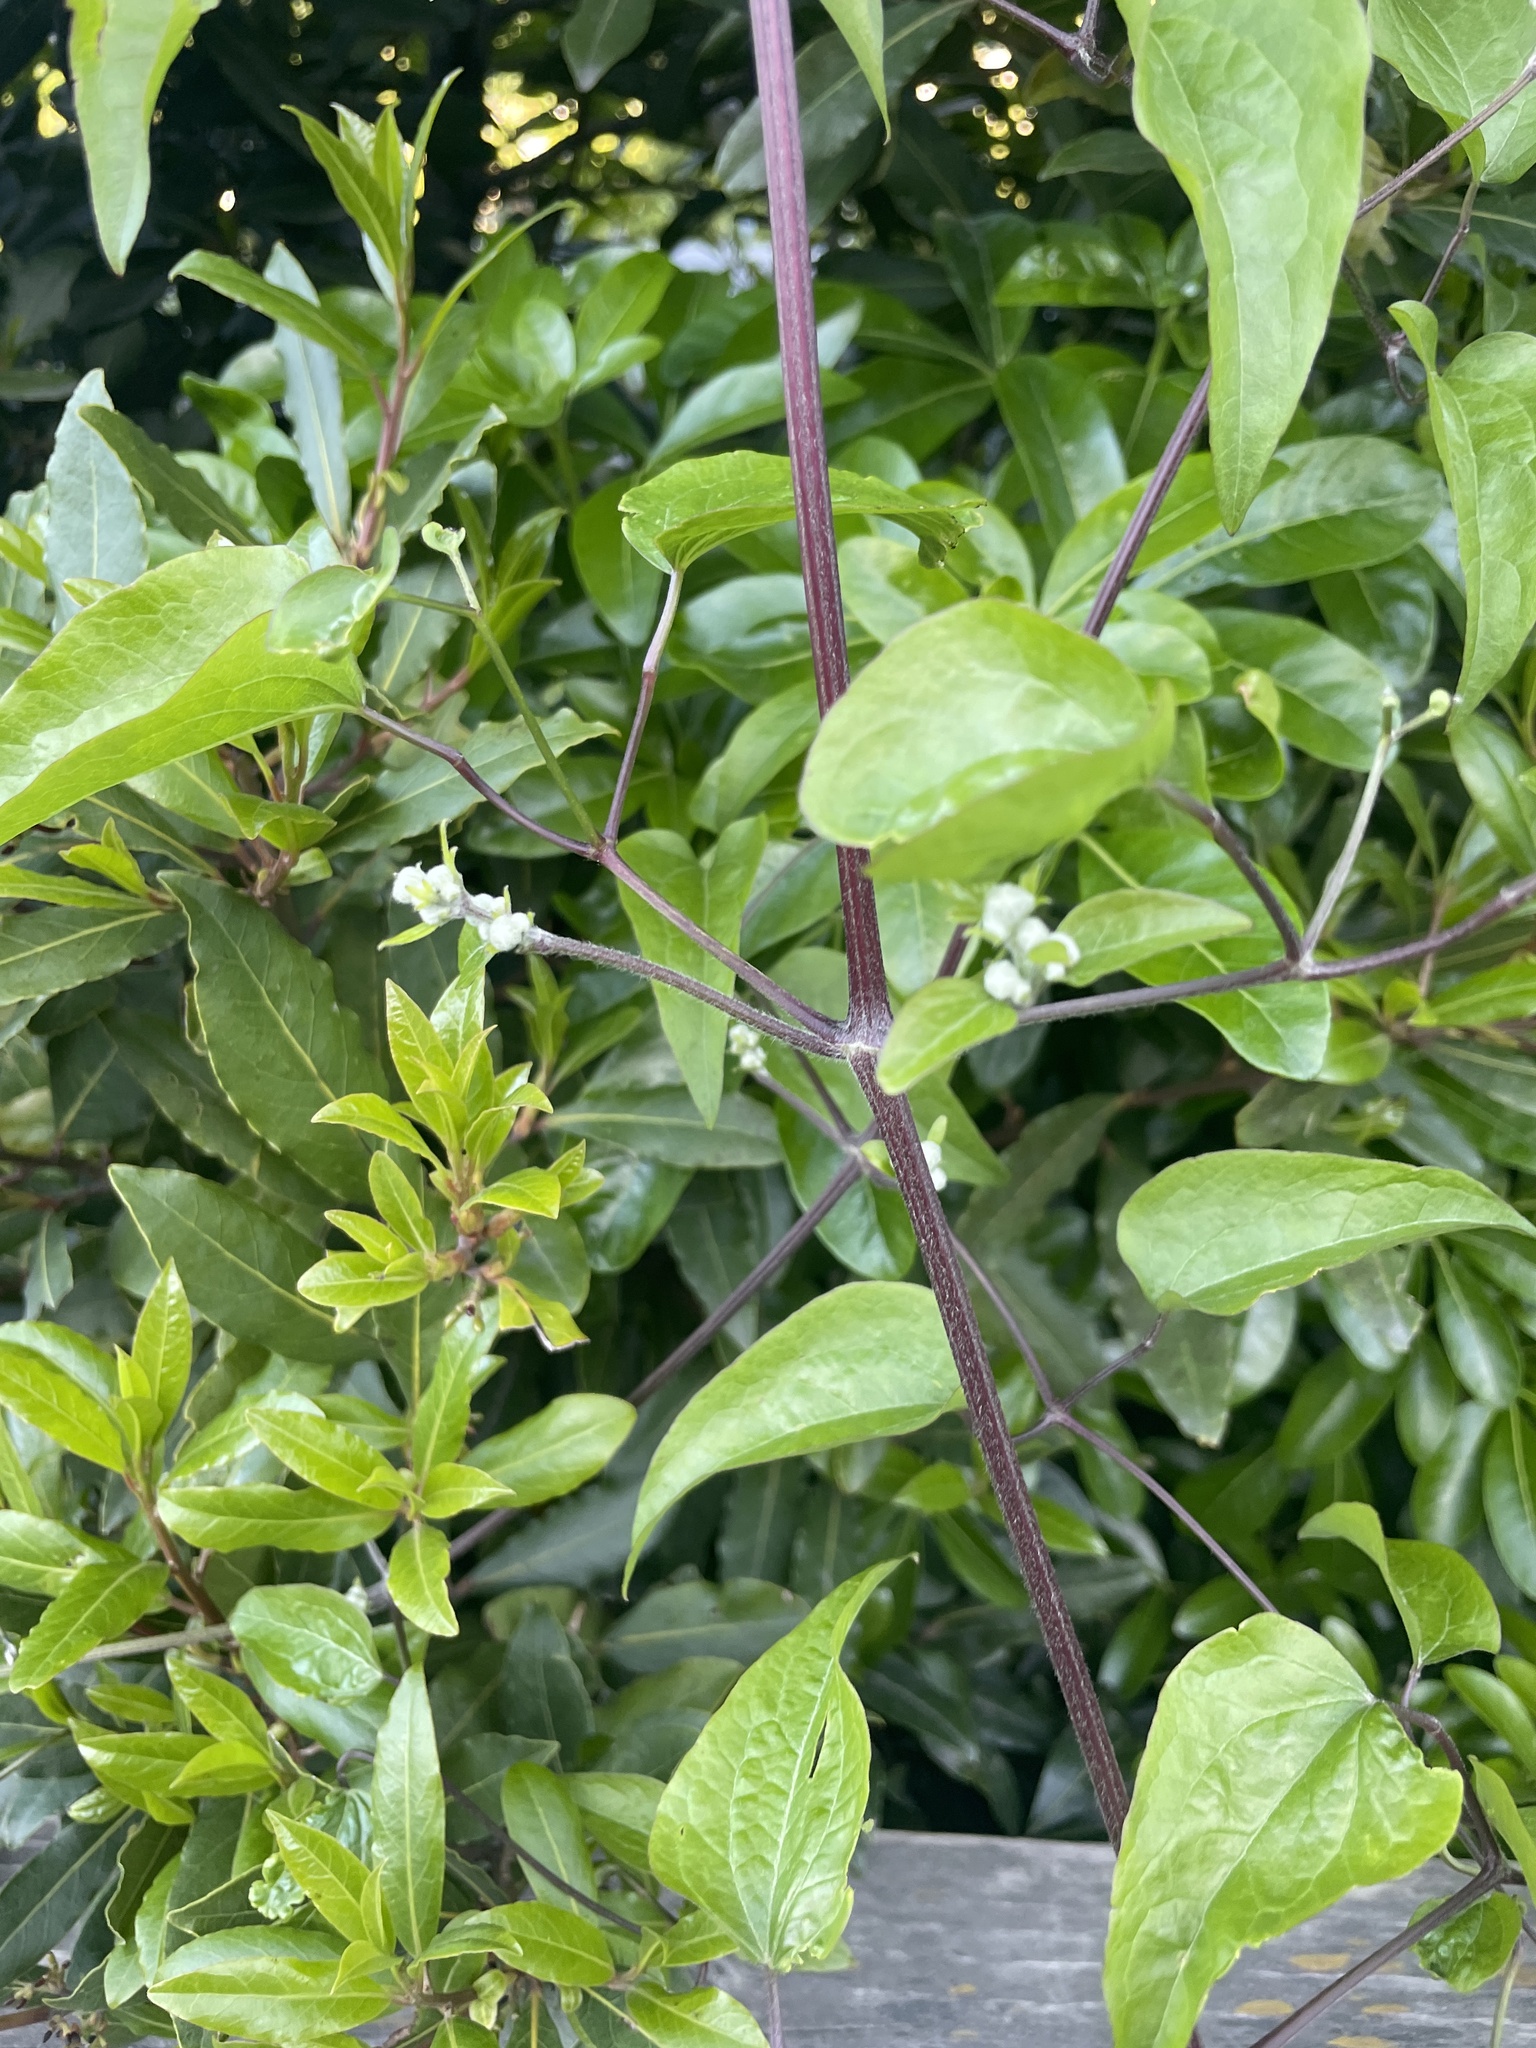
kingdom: Plantae
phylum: Tracheophyta
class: Magnoliopsida
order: Ranunculales
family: Ranunculaceae
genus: Clematis
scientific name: Clematis vitalba
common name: Evergreen clematis
